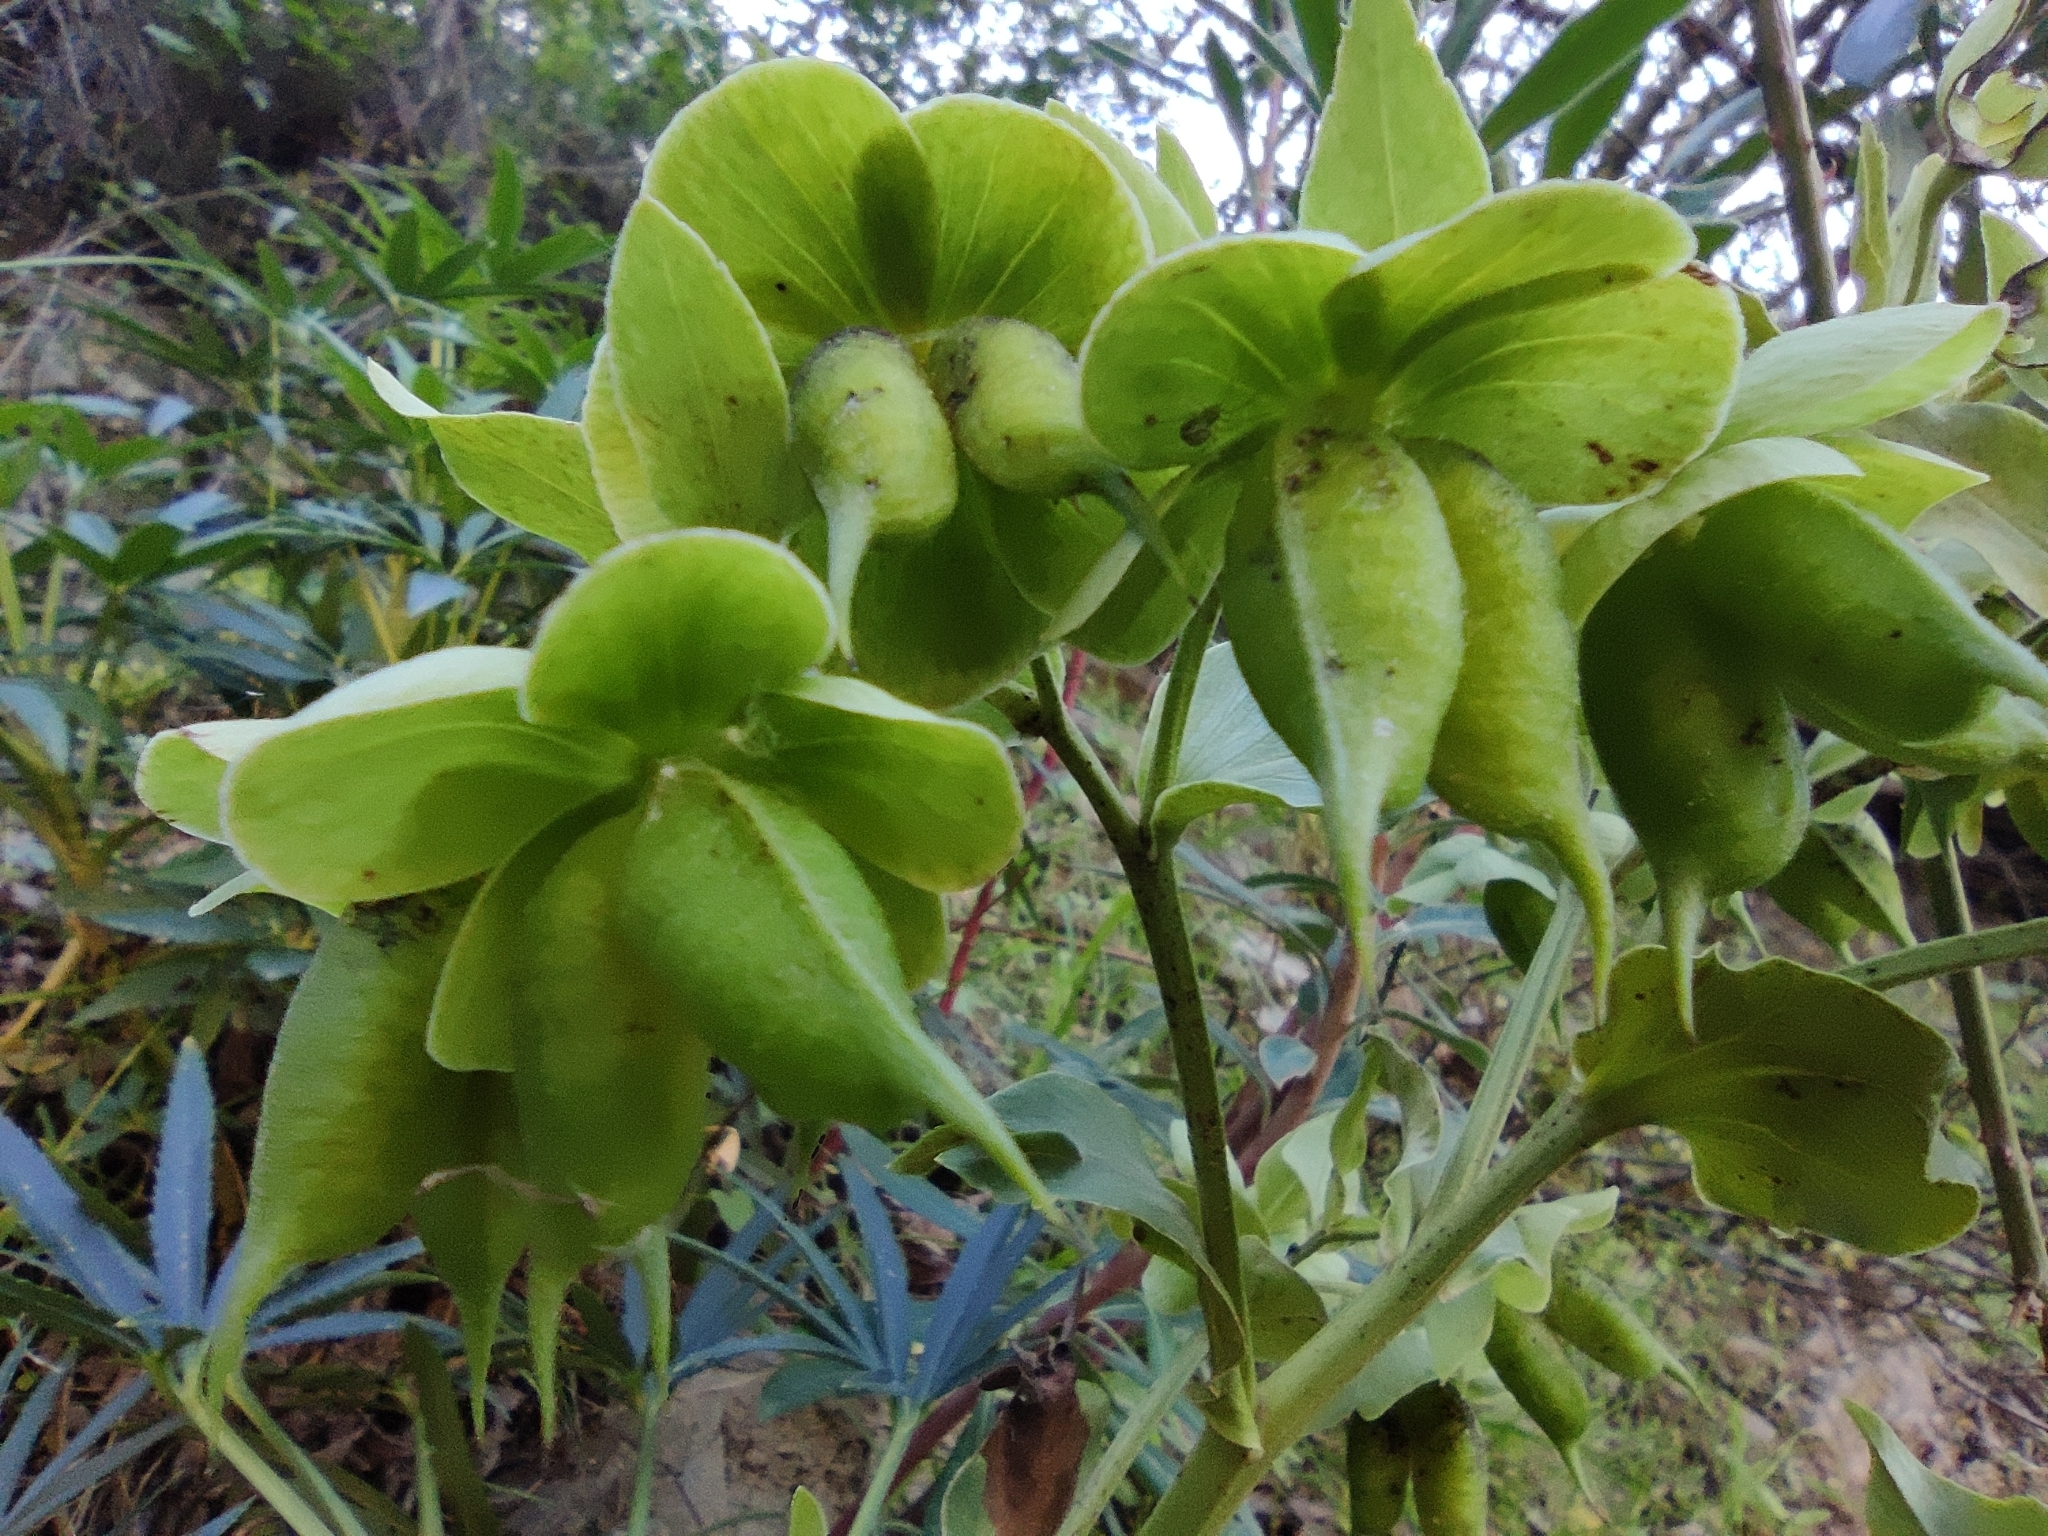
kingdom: Plantae
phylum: Tracheophyta
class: Magnoliopsida
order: Ranunculales
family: Ranunculaceae
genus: Helleborus
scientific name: Helleborus foetidus
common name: Stinking hellebore
